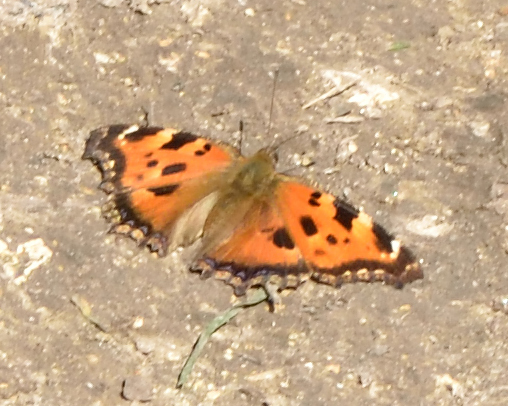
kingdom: Animalia
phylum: Arthropoda
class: Insecta
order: Lepidoptera
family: Nymphalidae
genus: Nymphalis
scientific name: Nymphalis xanthomelas
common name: Scarce tortoiseshell
